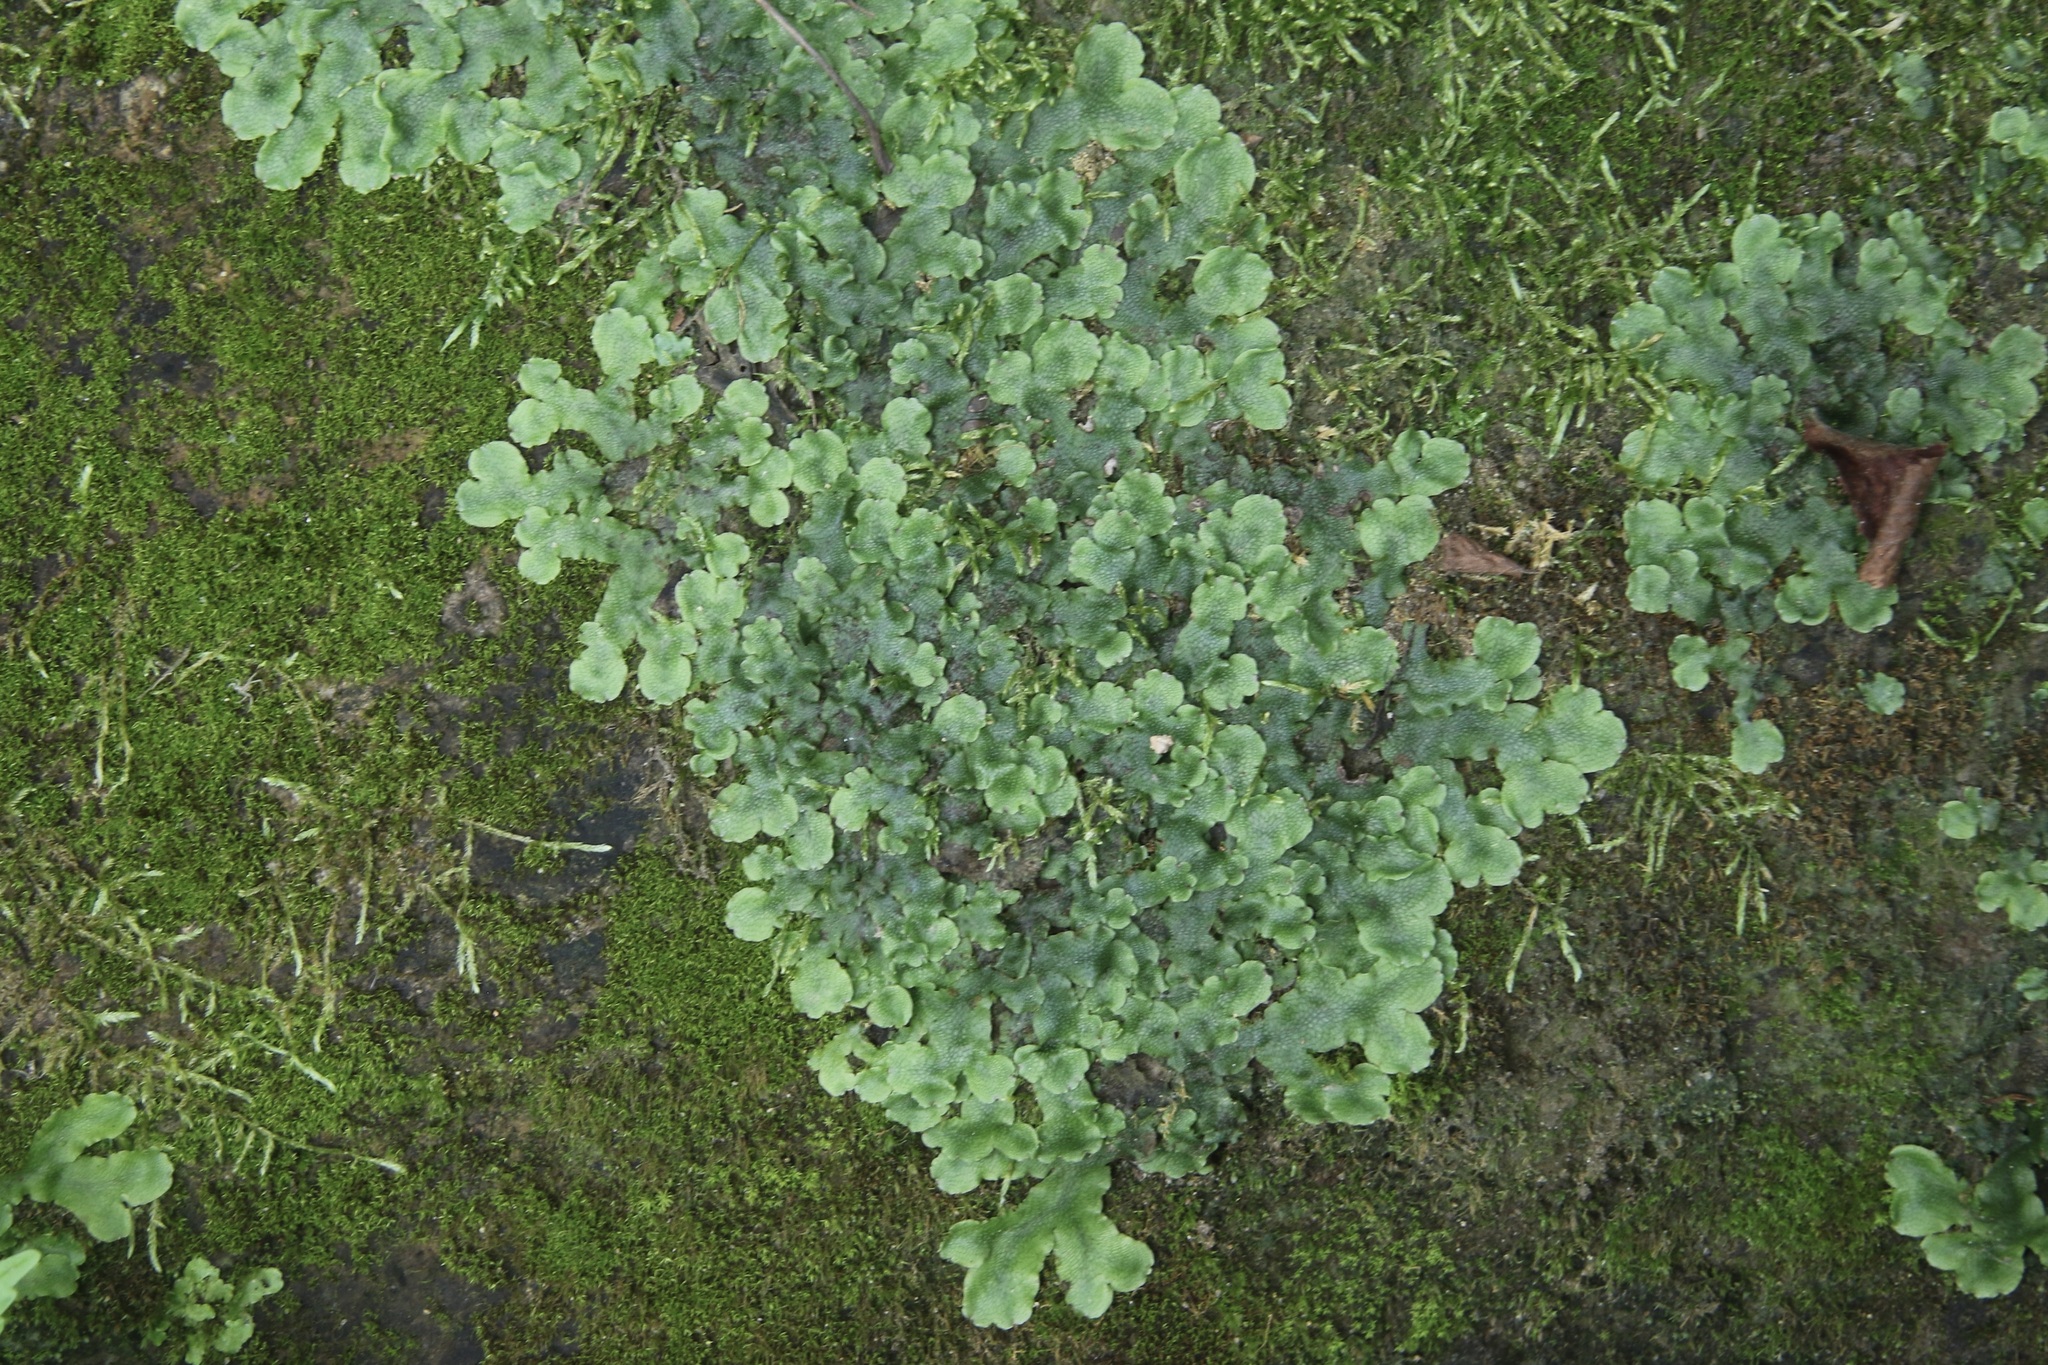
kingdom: Plantae
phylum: Marchantiophyta
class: Marchantiopsida
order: Marchantiales
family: Conocephalaceae
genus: Conocephalum
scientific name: Conocephalum salebrosum
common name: Cat-tongue liverwort
